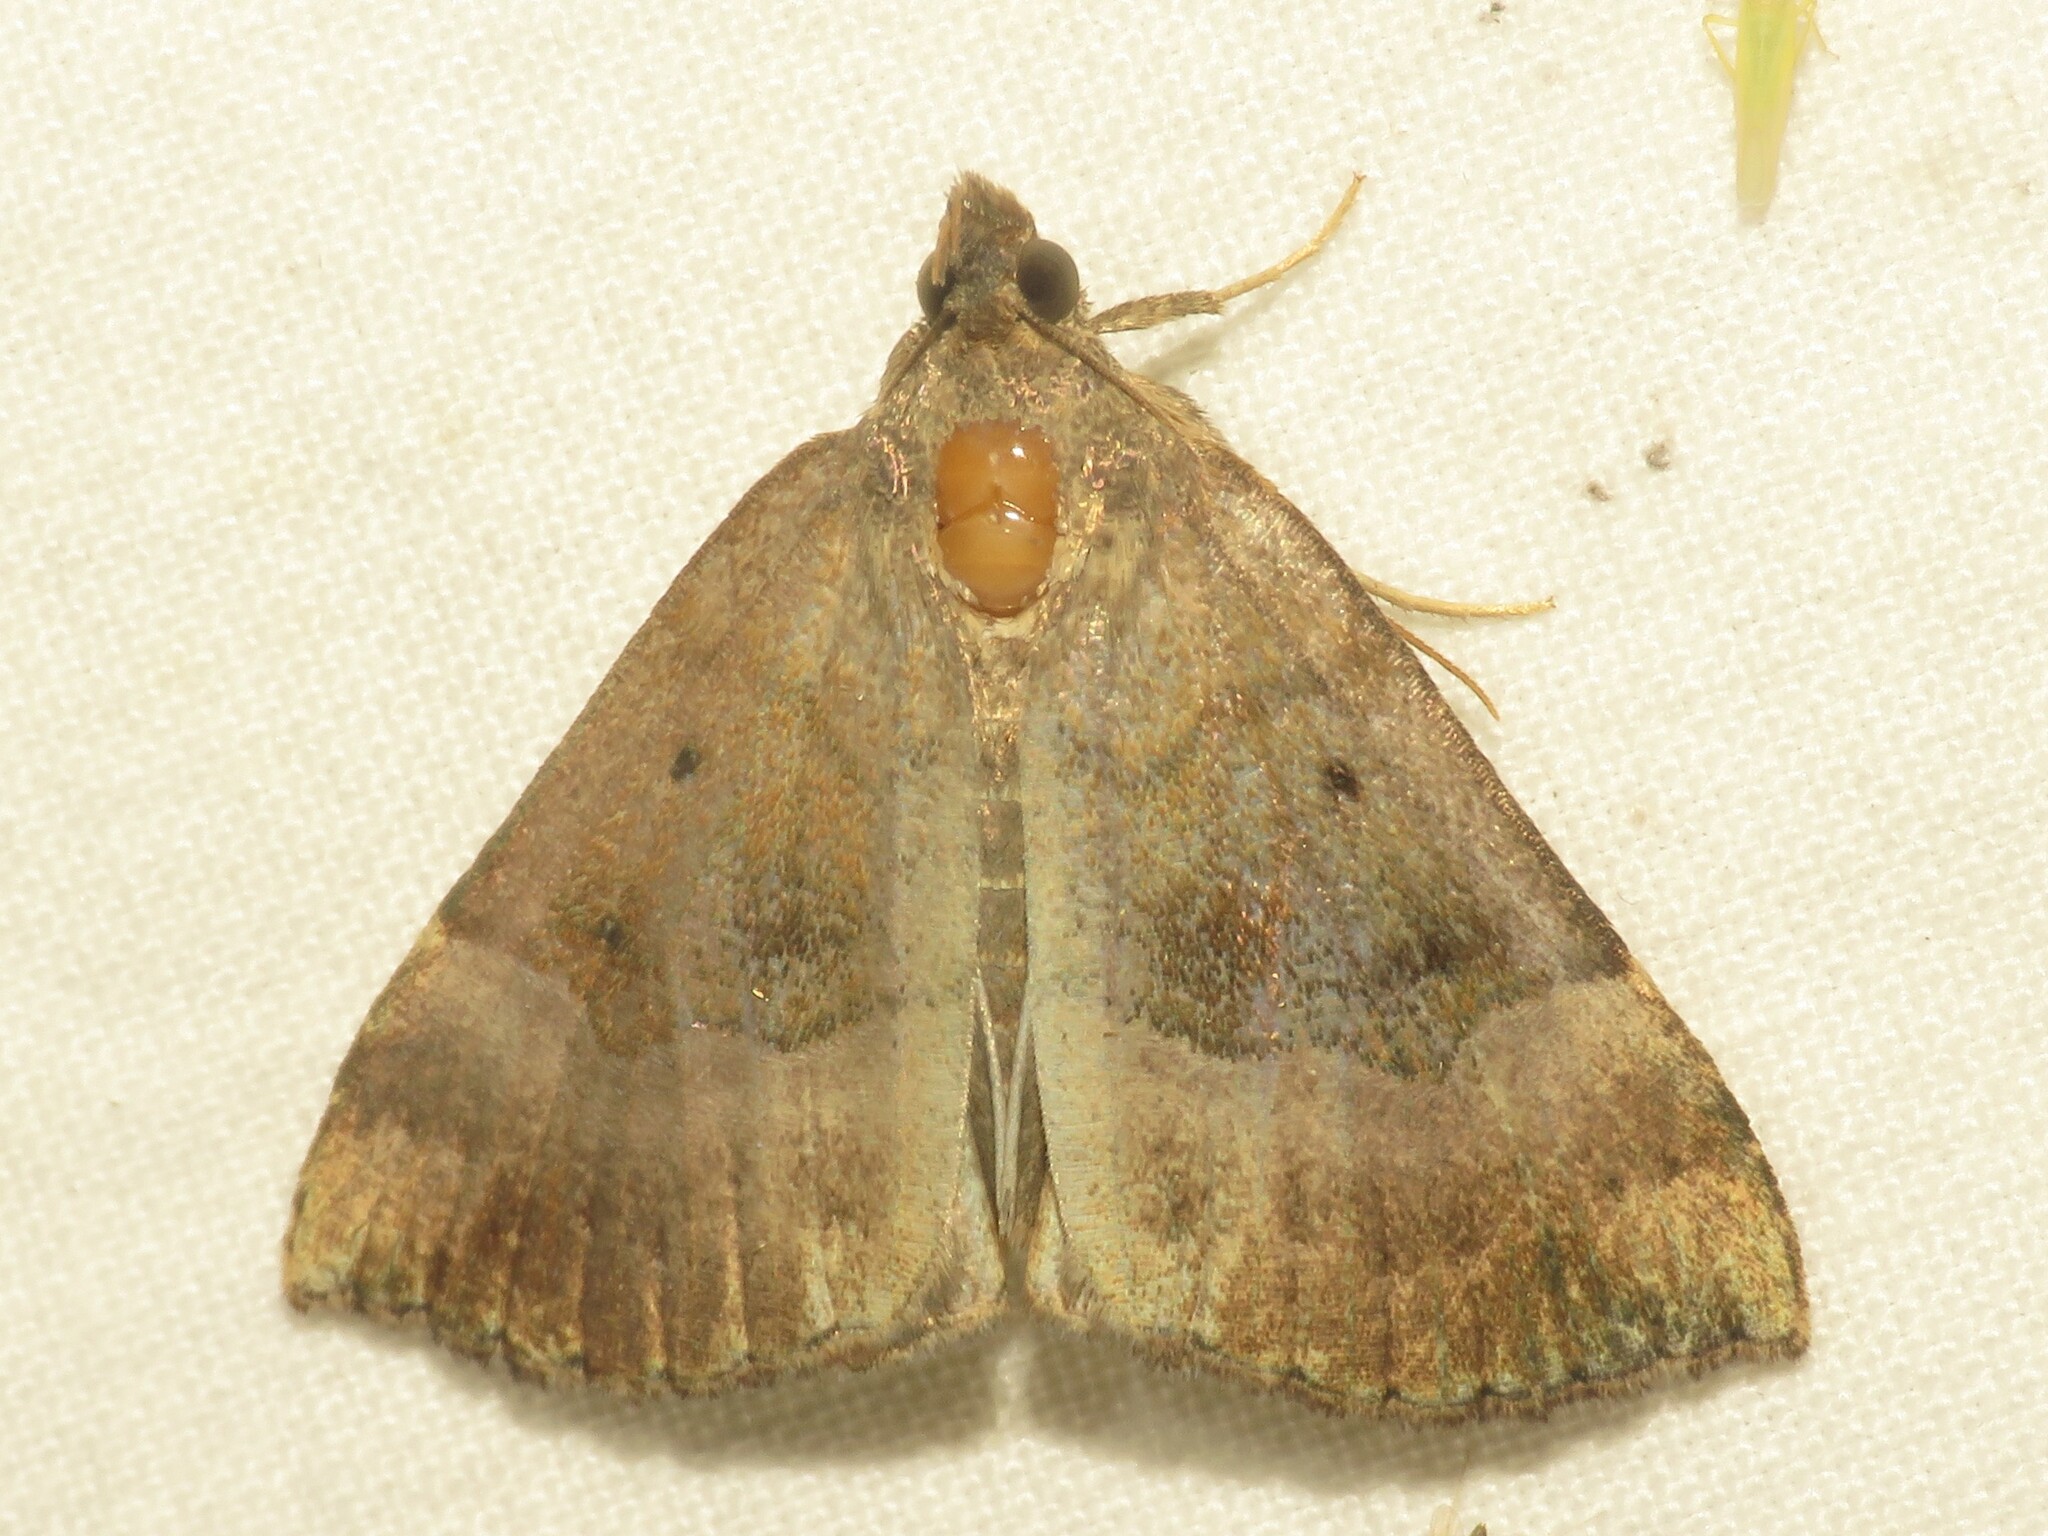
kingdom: Animalia
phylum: Arthropoda
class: Insecta
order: Lepidoptera
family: Erebidae
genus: Hypena
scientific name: Hypena madefactalis
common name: Gray-edged snout
